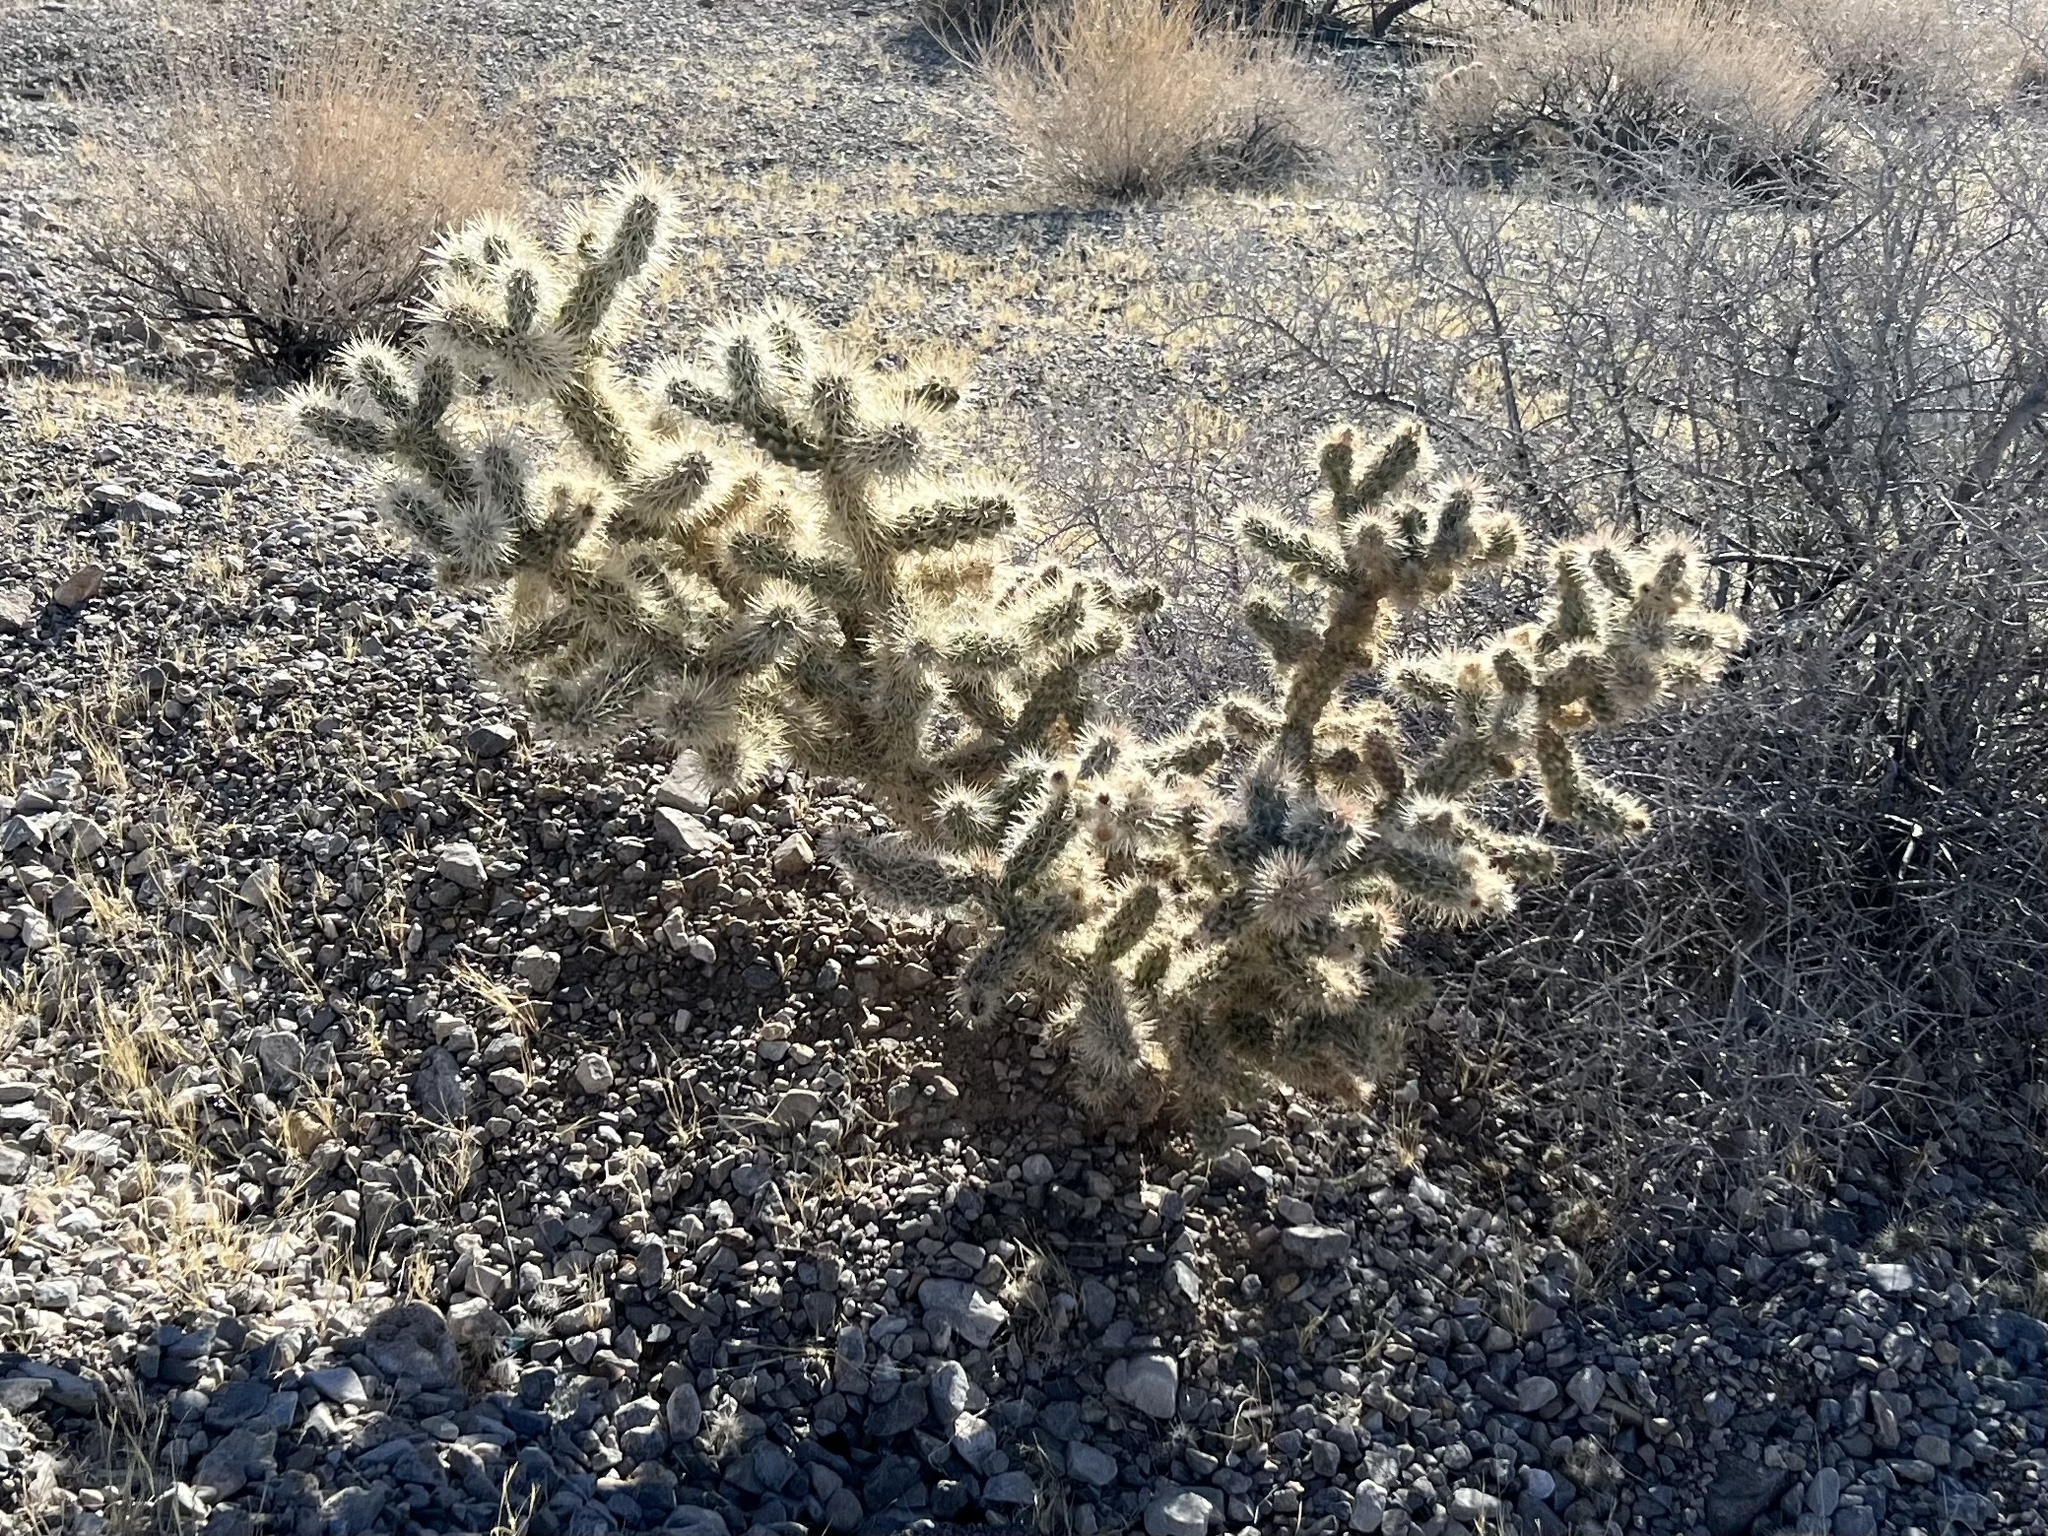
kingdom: Plantae
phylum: Tracheophyta
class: Magnoliopsida
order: Caryophyllales
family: Cactaceae
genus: Cylindropuntia
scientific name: Cylindropuntia echinocarpa
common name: Ground cholla
